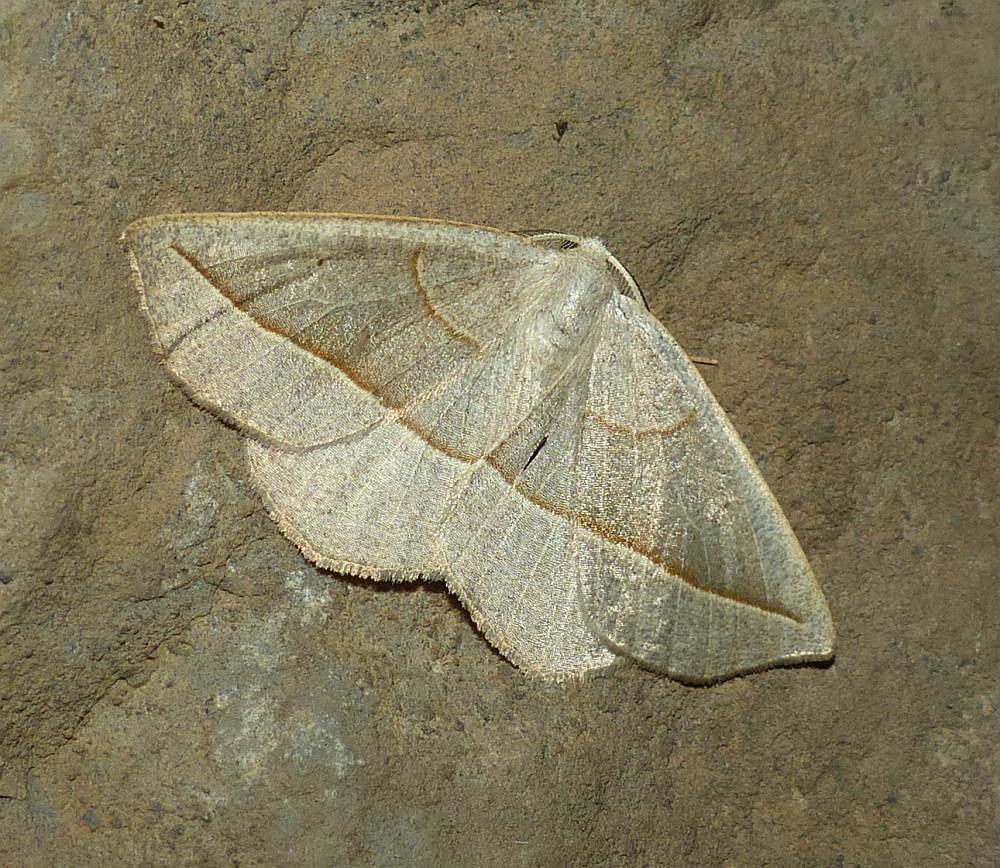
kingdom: Animalia
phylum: Arthropoda
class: Insecta
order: Lepidoptera
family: Geometridae
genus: Eusarca
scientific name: Eusarca confusaria
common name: Confused eusarca
